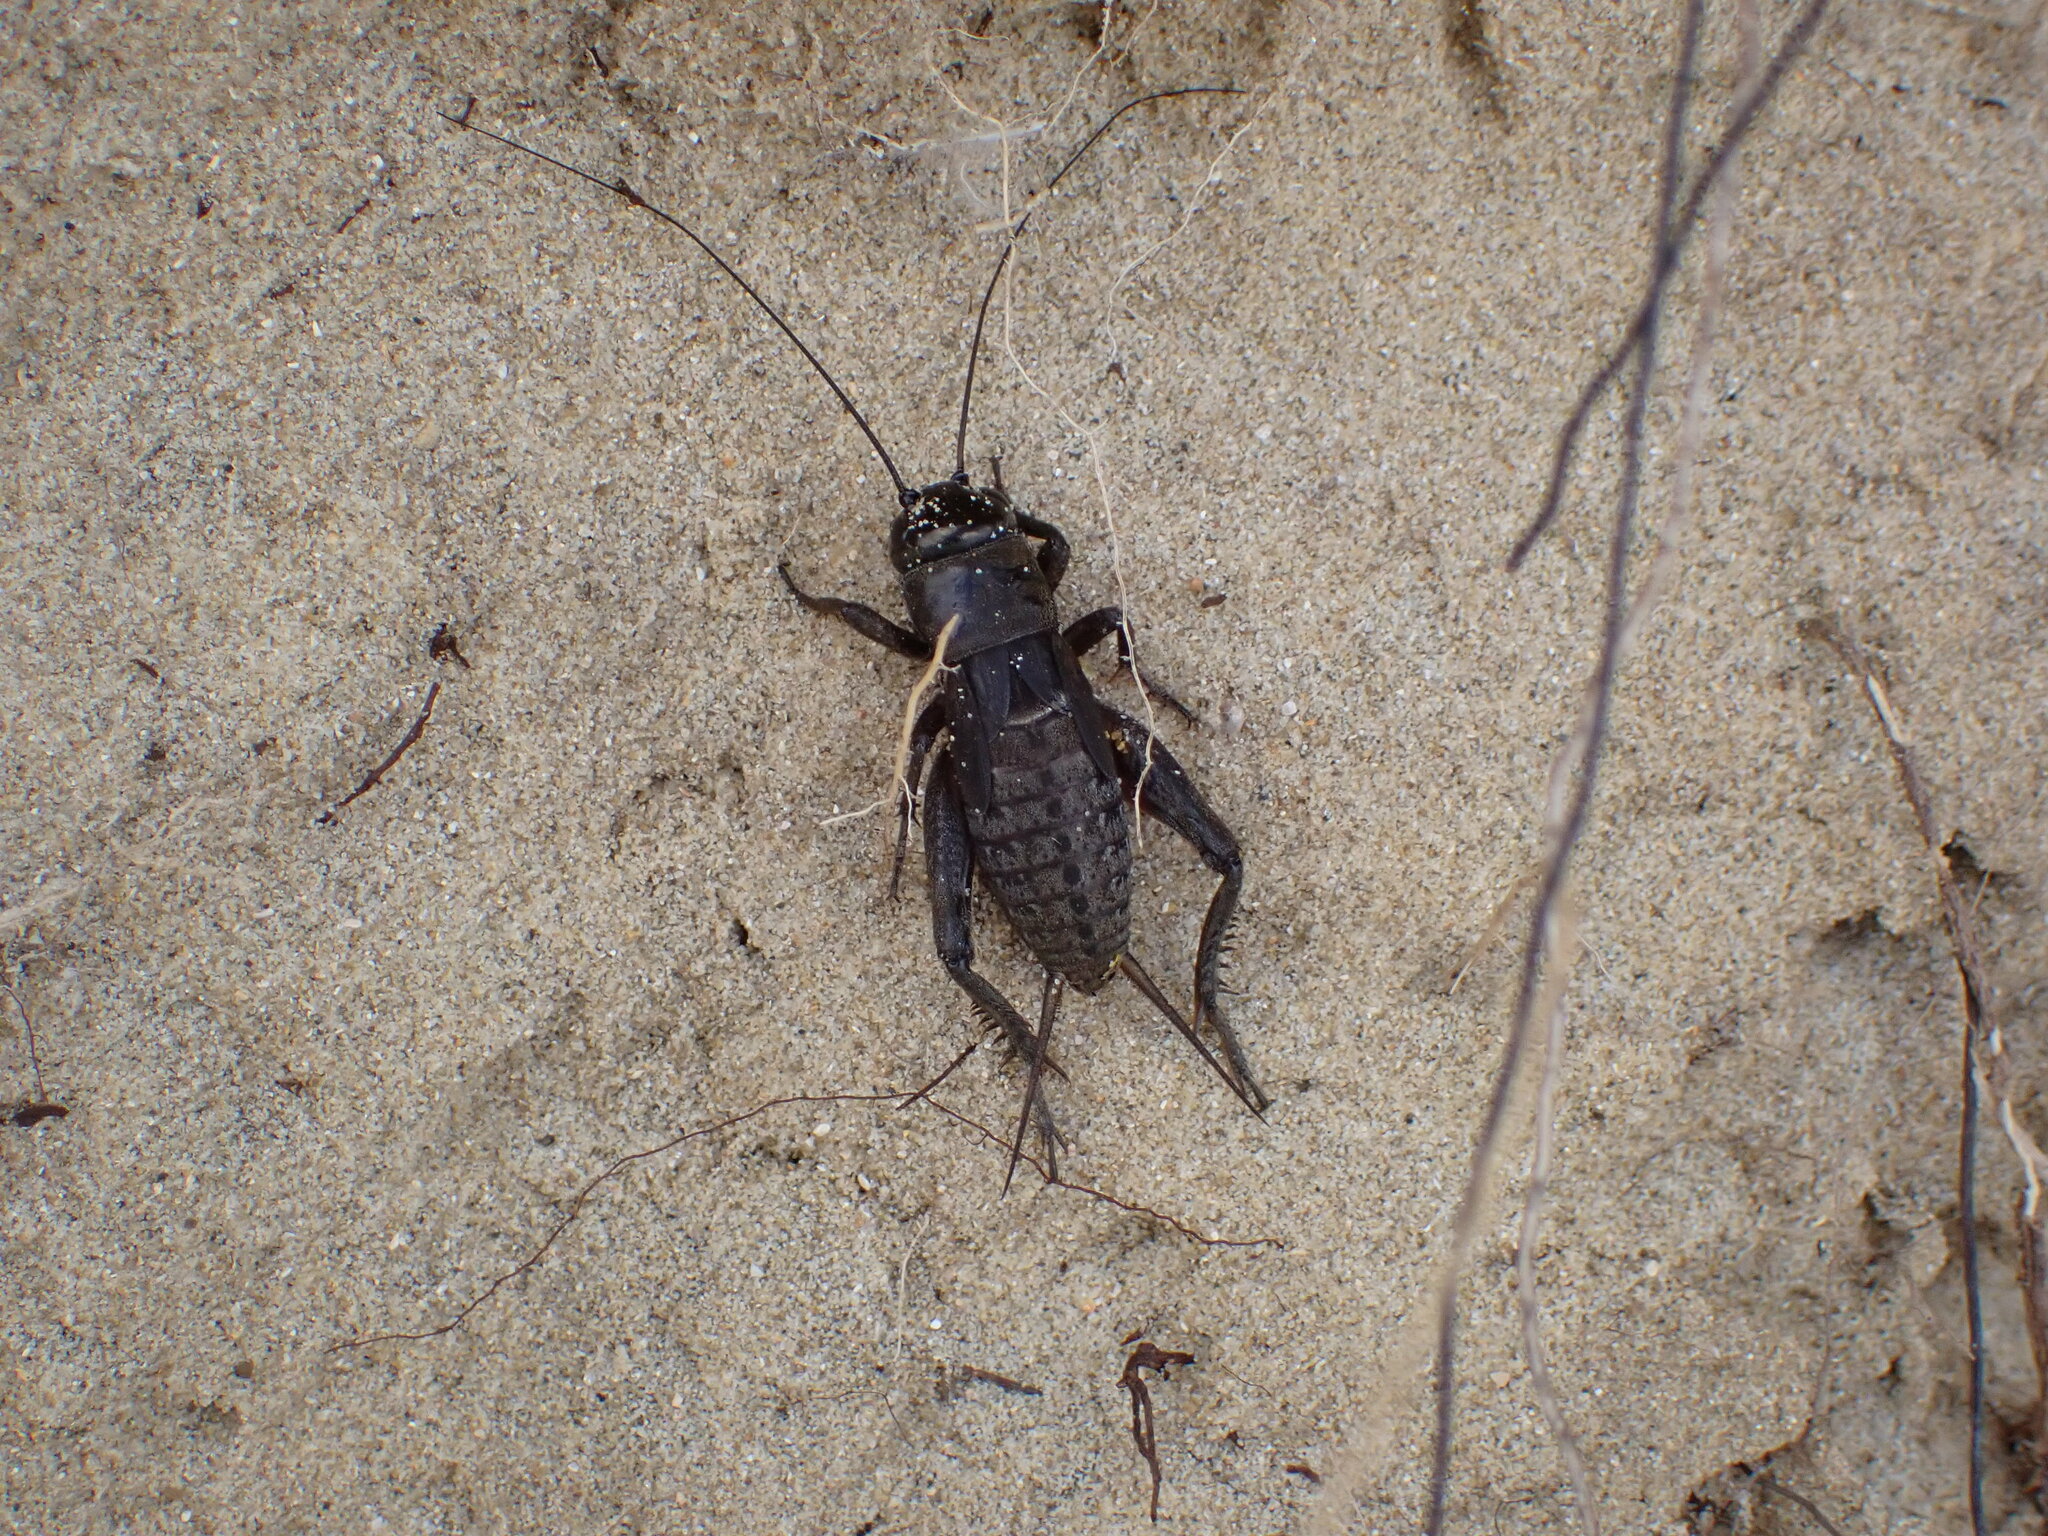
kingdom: Animalia
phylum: Arthropoda
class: Insecta
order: Orthoptera
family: Gryllidae
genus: Teleogryllus
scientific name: Teleogryllus commodus
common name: Black field cricket
